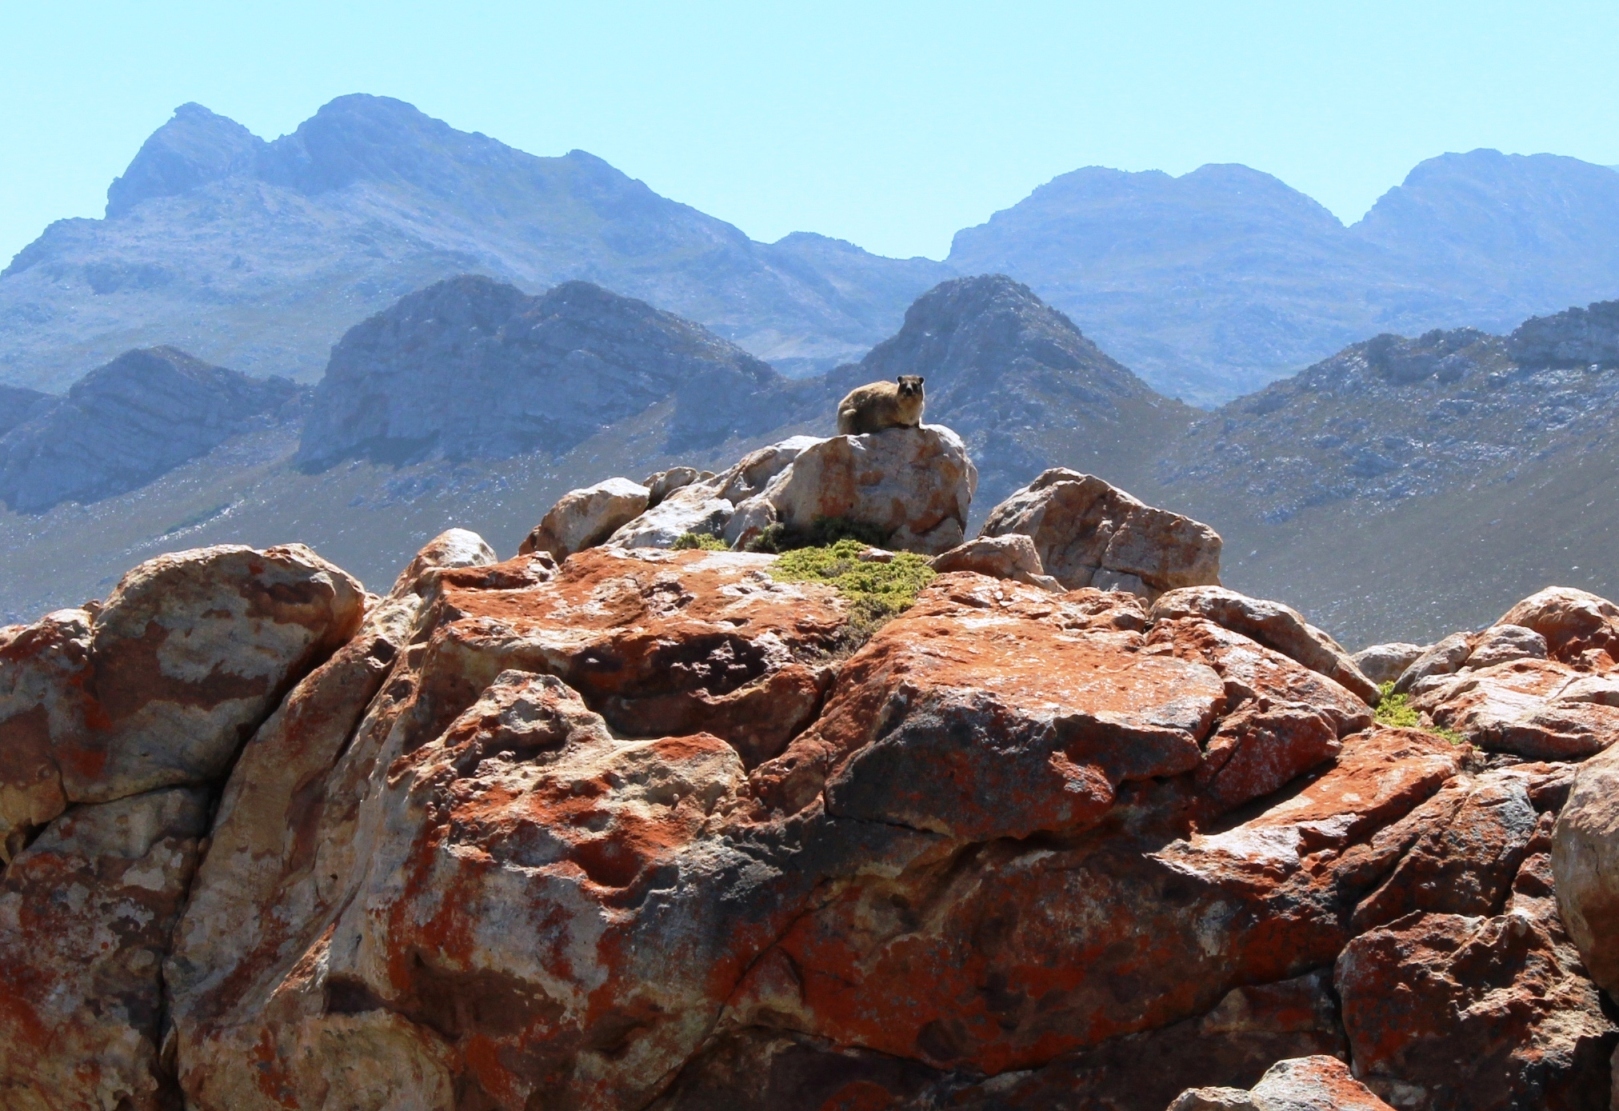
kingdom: Animalia
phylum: Chordata
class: Mammalia
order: Hyracoidea
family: Procaviidae
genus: Procavia
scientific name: Procavia capensis
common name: Rock hyrax
